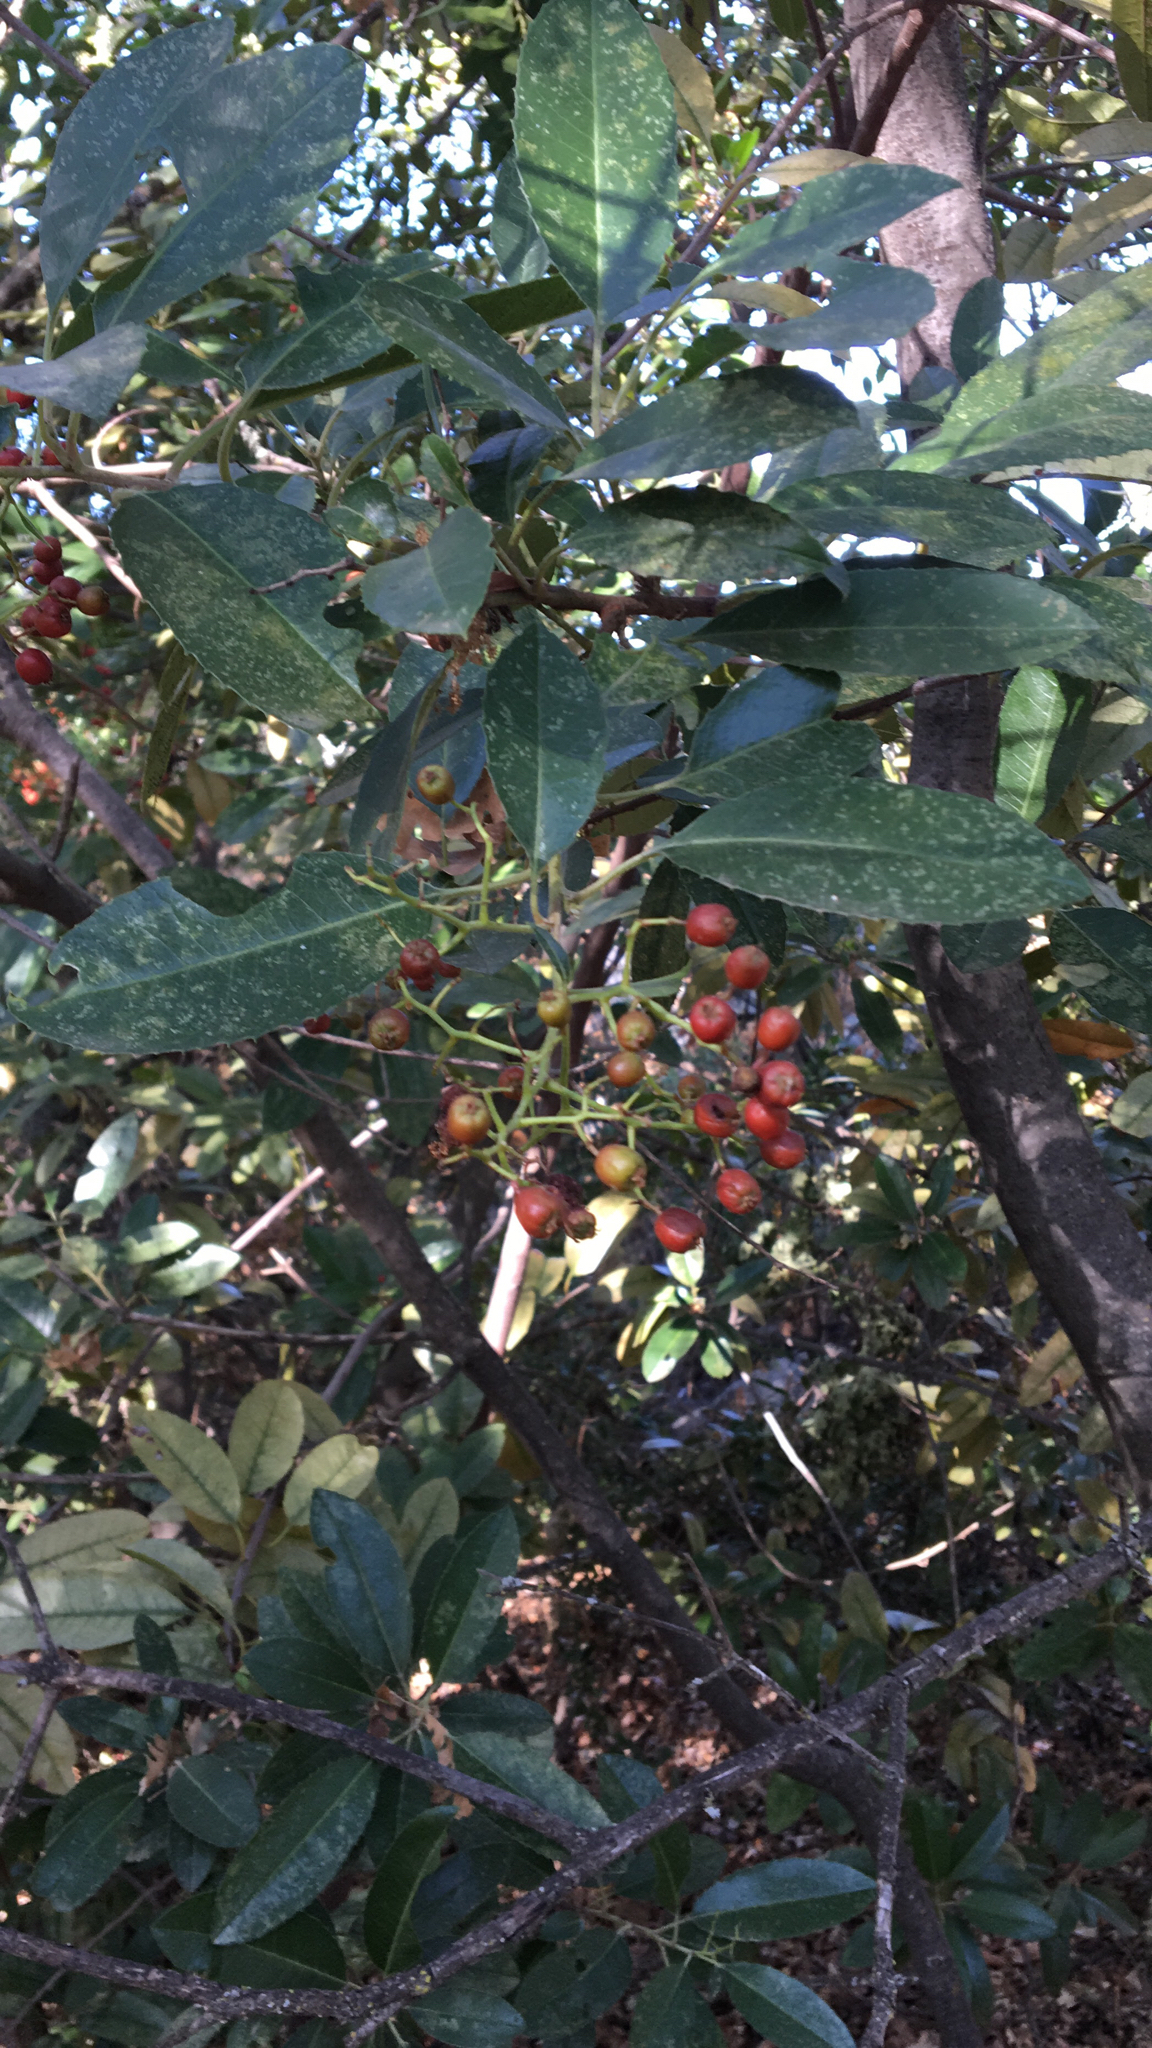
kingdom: Plantae
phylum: Tracheophyta
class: Magnoliopsida
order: Rosales
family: Rosaceae
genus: Heteromeles
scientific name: Heteromeles arbutifolia
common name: California-holly
